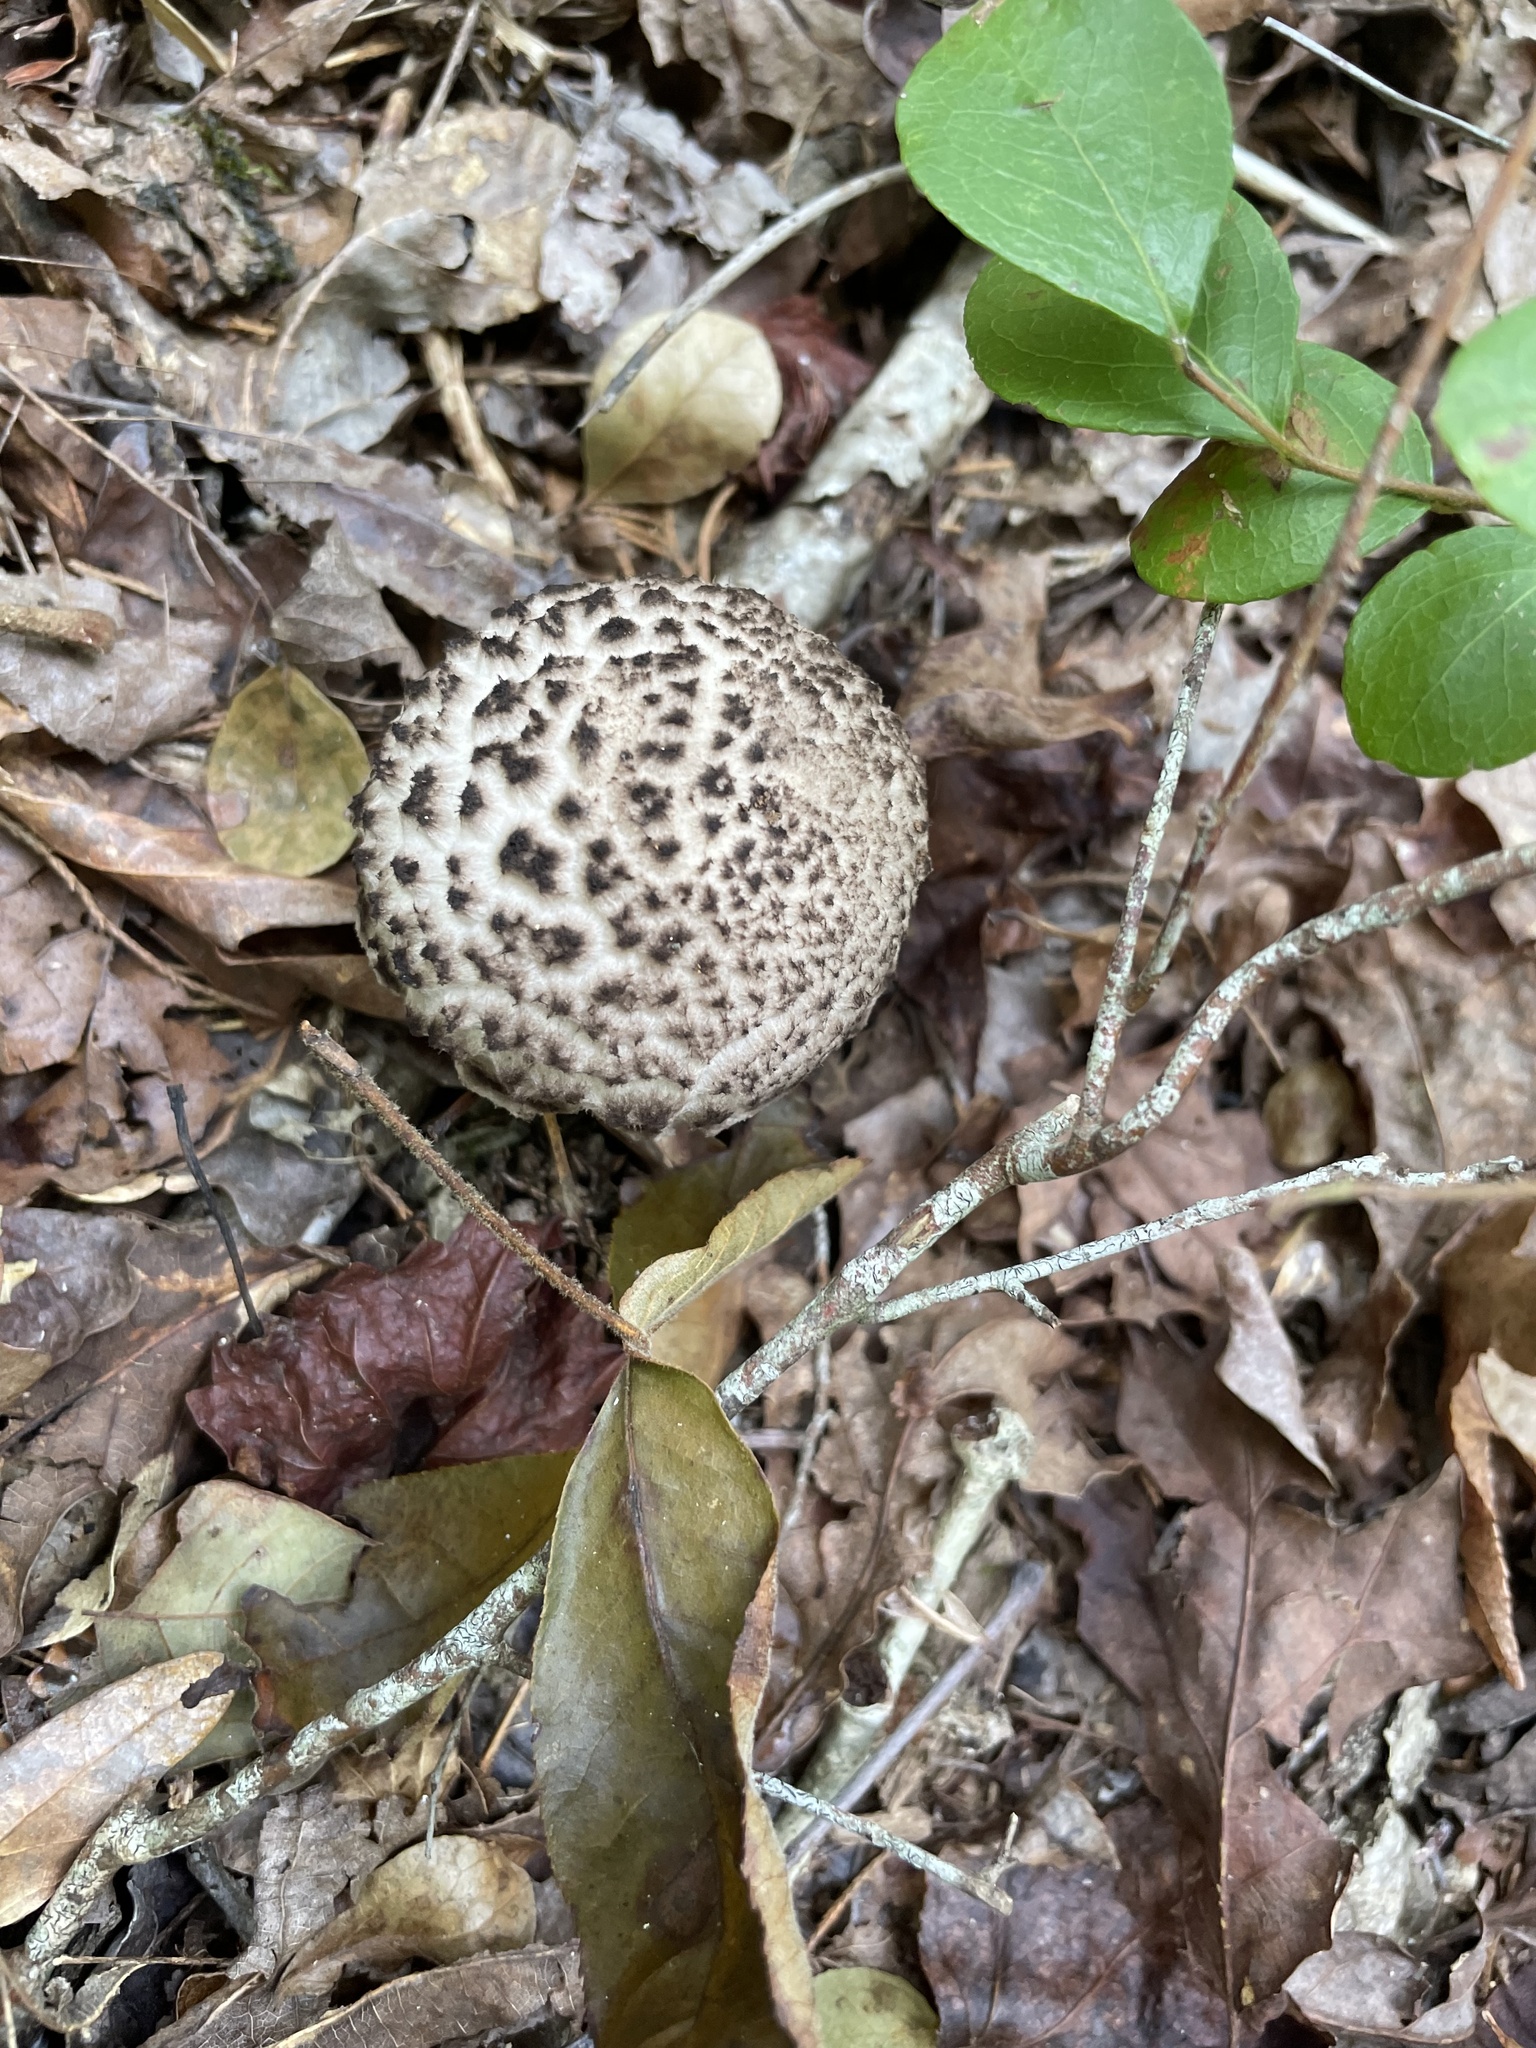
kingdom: Fungi
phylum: Basidiomycota
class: Agaricomycetes
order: Boletales
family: Boletaceae
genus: Strobilomyces
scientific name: Strobilomyces strobilaceus
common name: Old man of the woods
